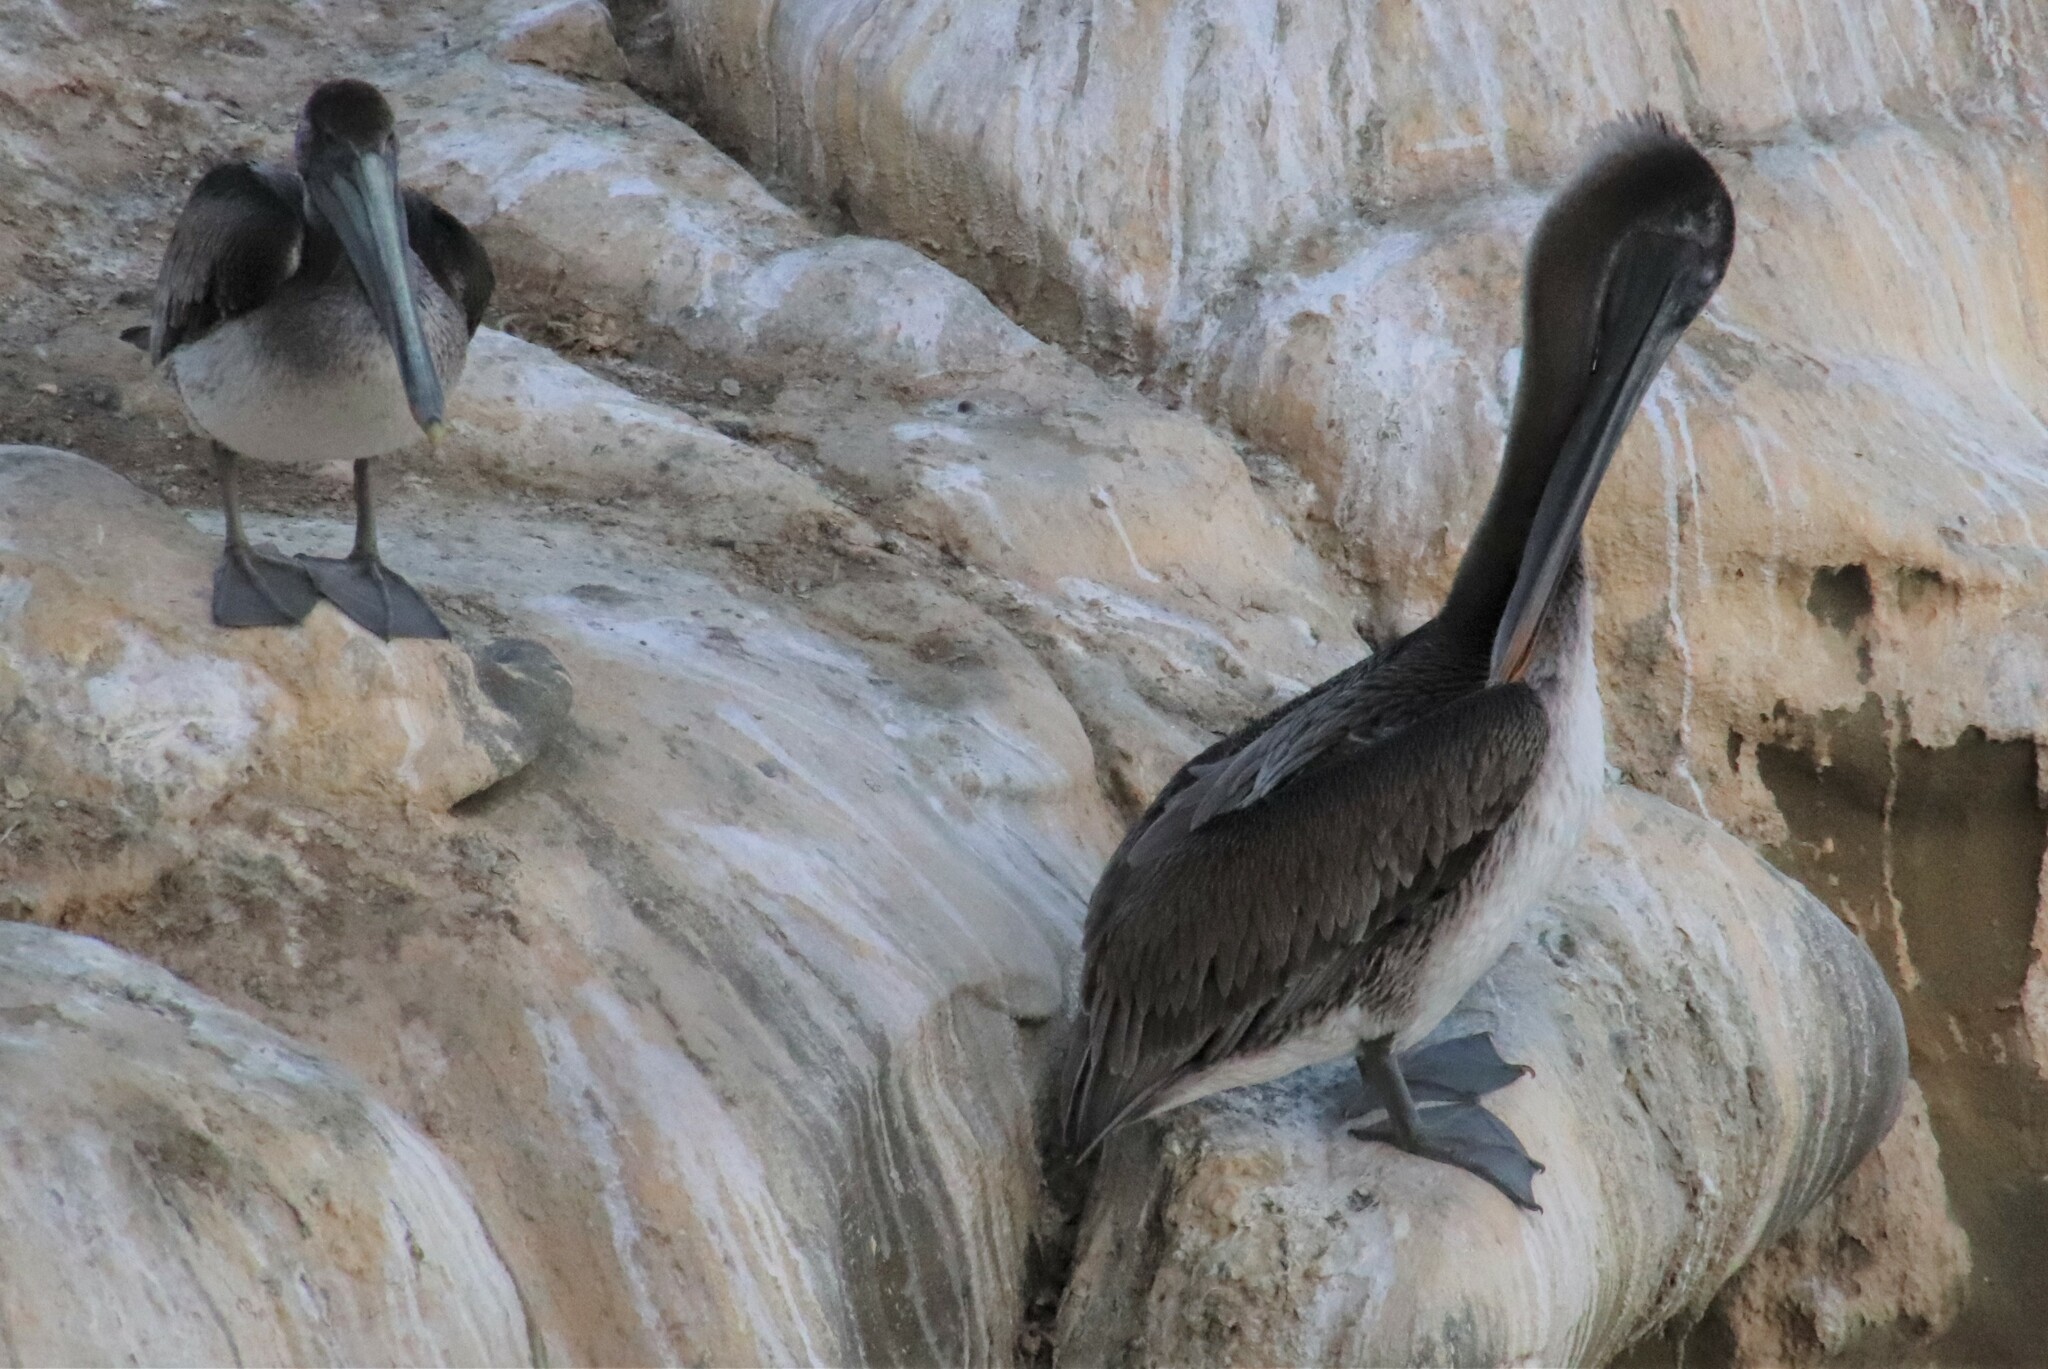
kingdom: Animalia
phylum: Chordata
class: Aves
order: Pelecaniformes
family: Pelecanidae
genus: Pelecanus
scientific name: Pelecanus occidentalis
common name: Brown pelican
